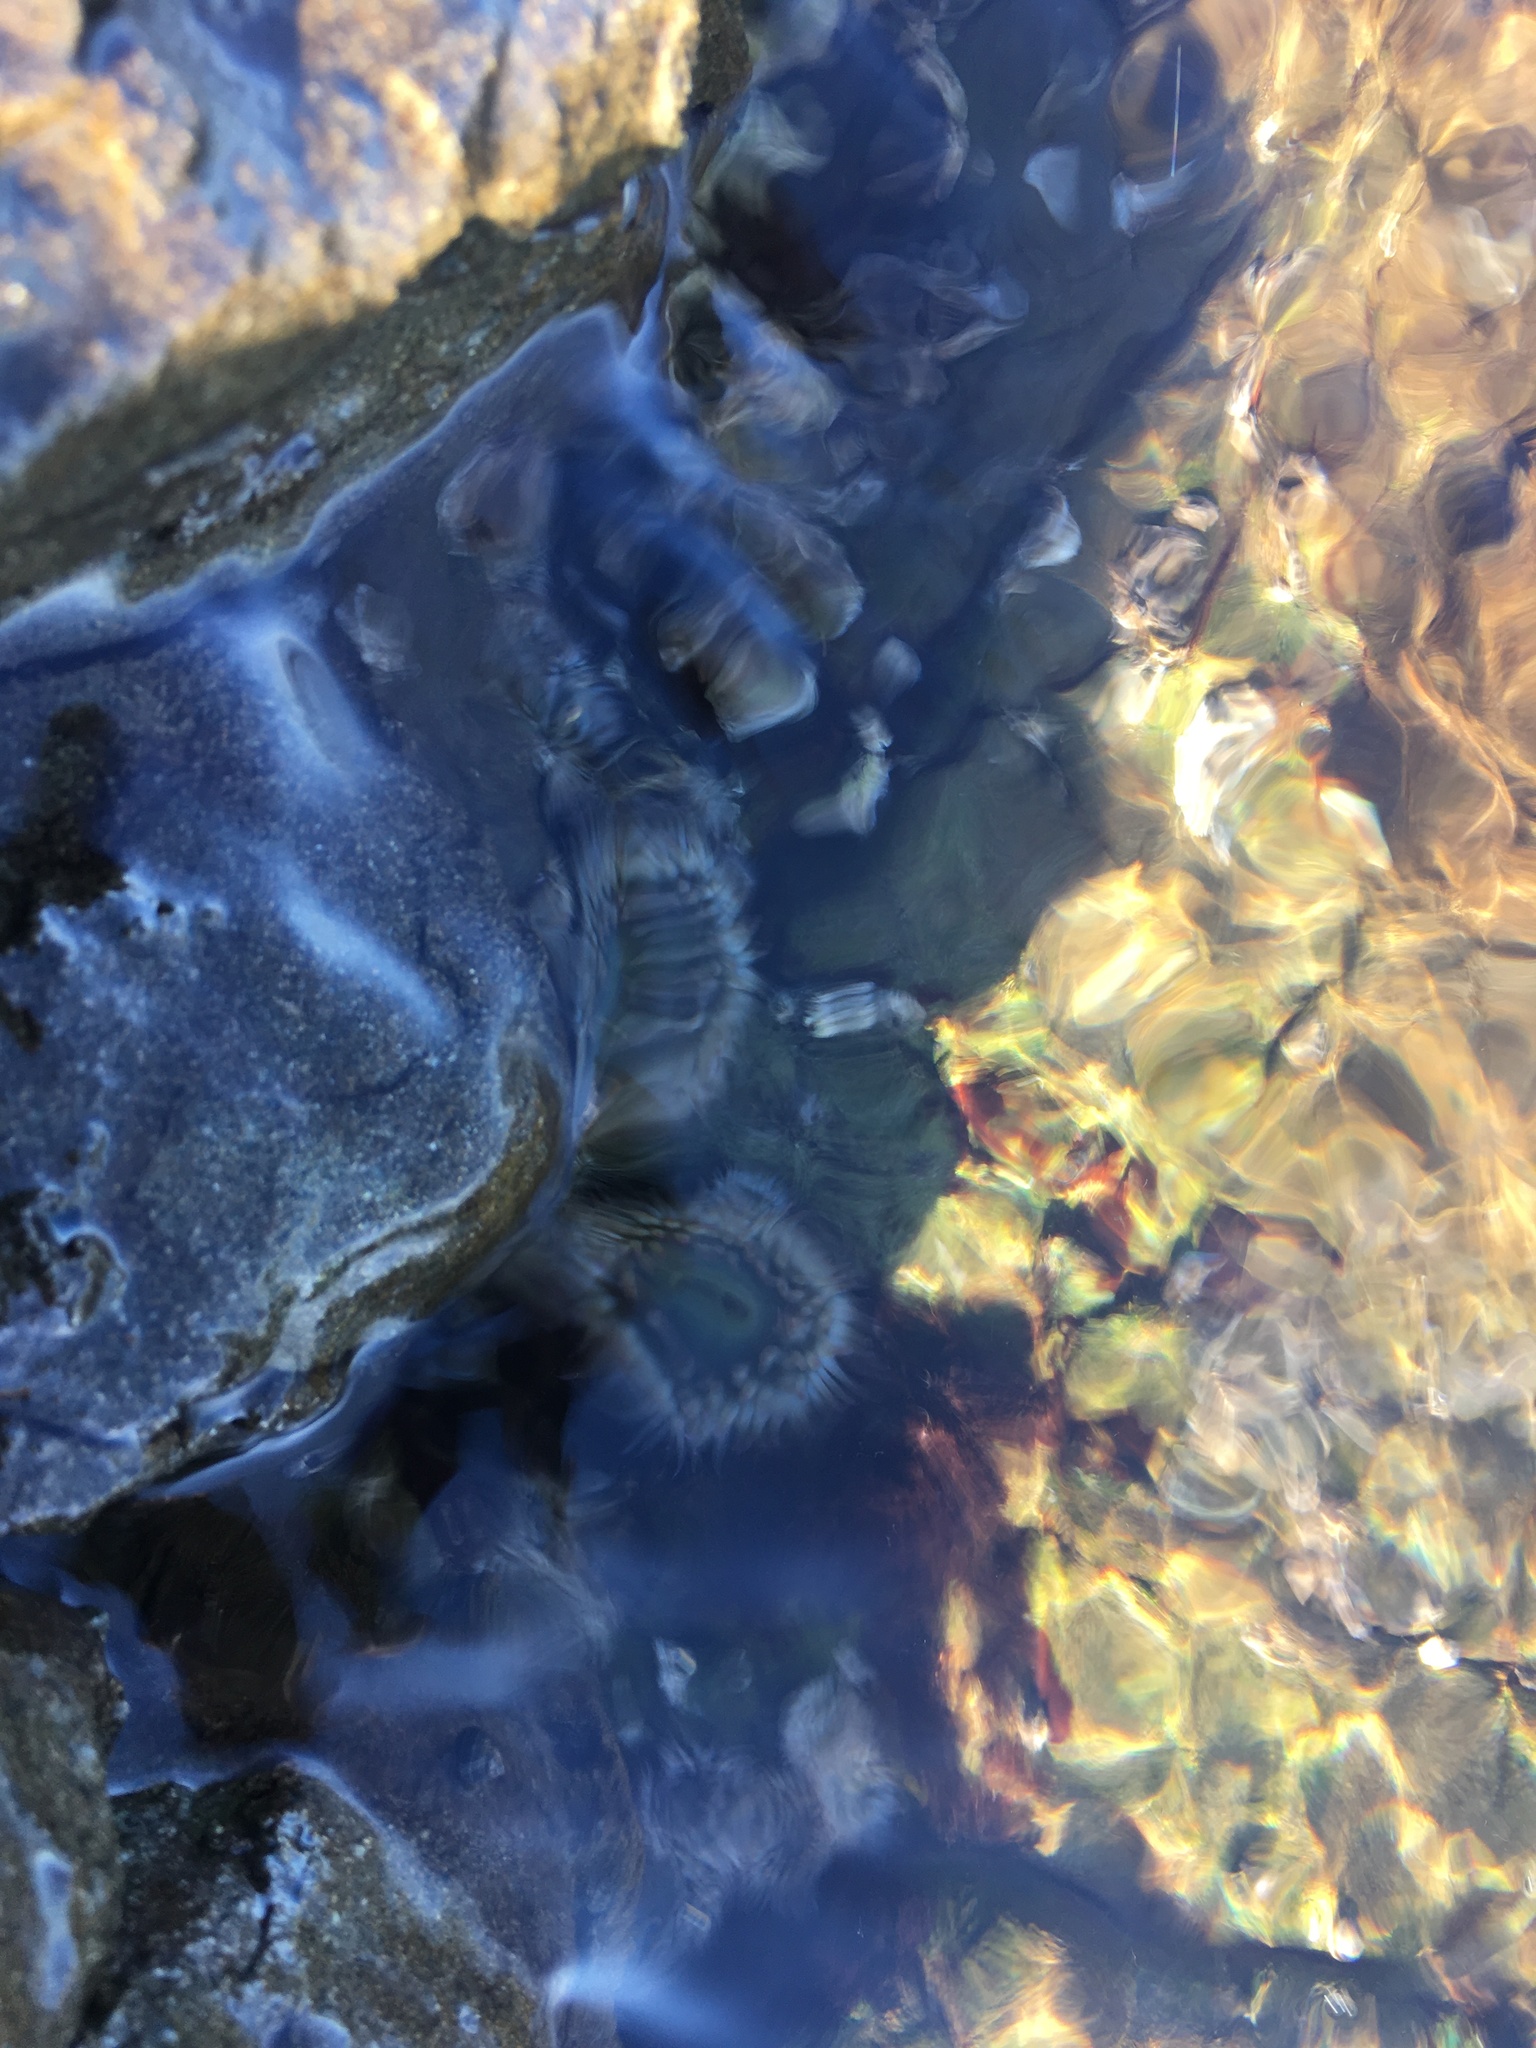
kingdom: Animalia
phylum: Cnidaria
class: Anthozoa
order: Actiniaria
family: Actiniidae
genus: Anthopleura
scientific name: Anthopleura elegantissima
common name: Clonal anemone
